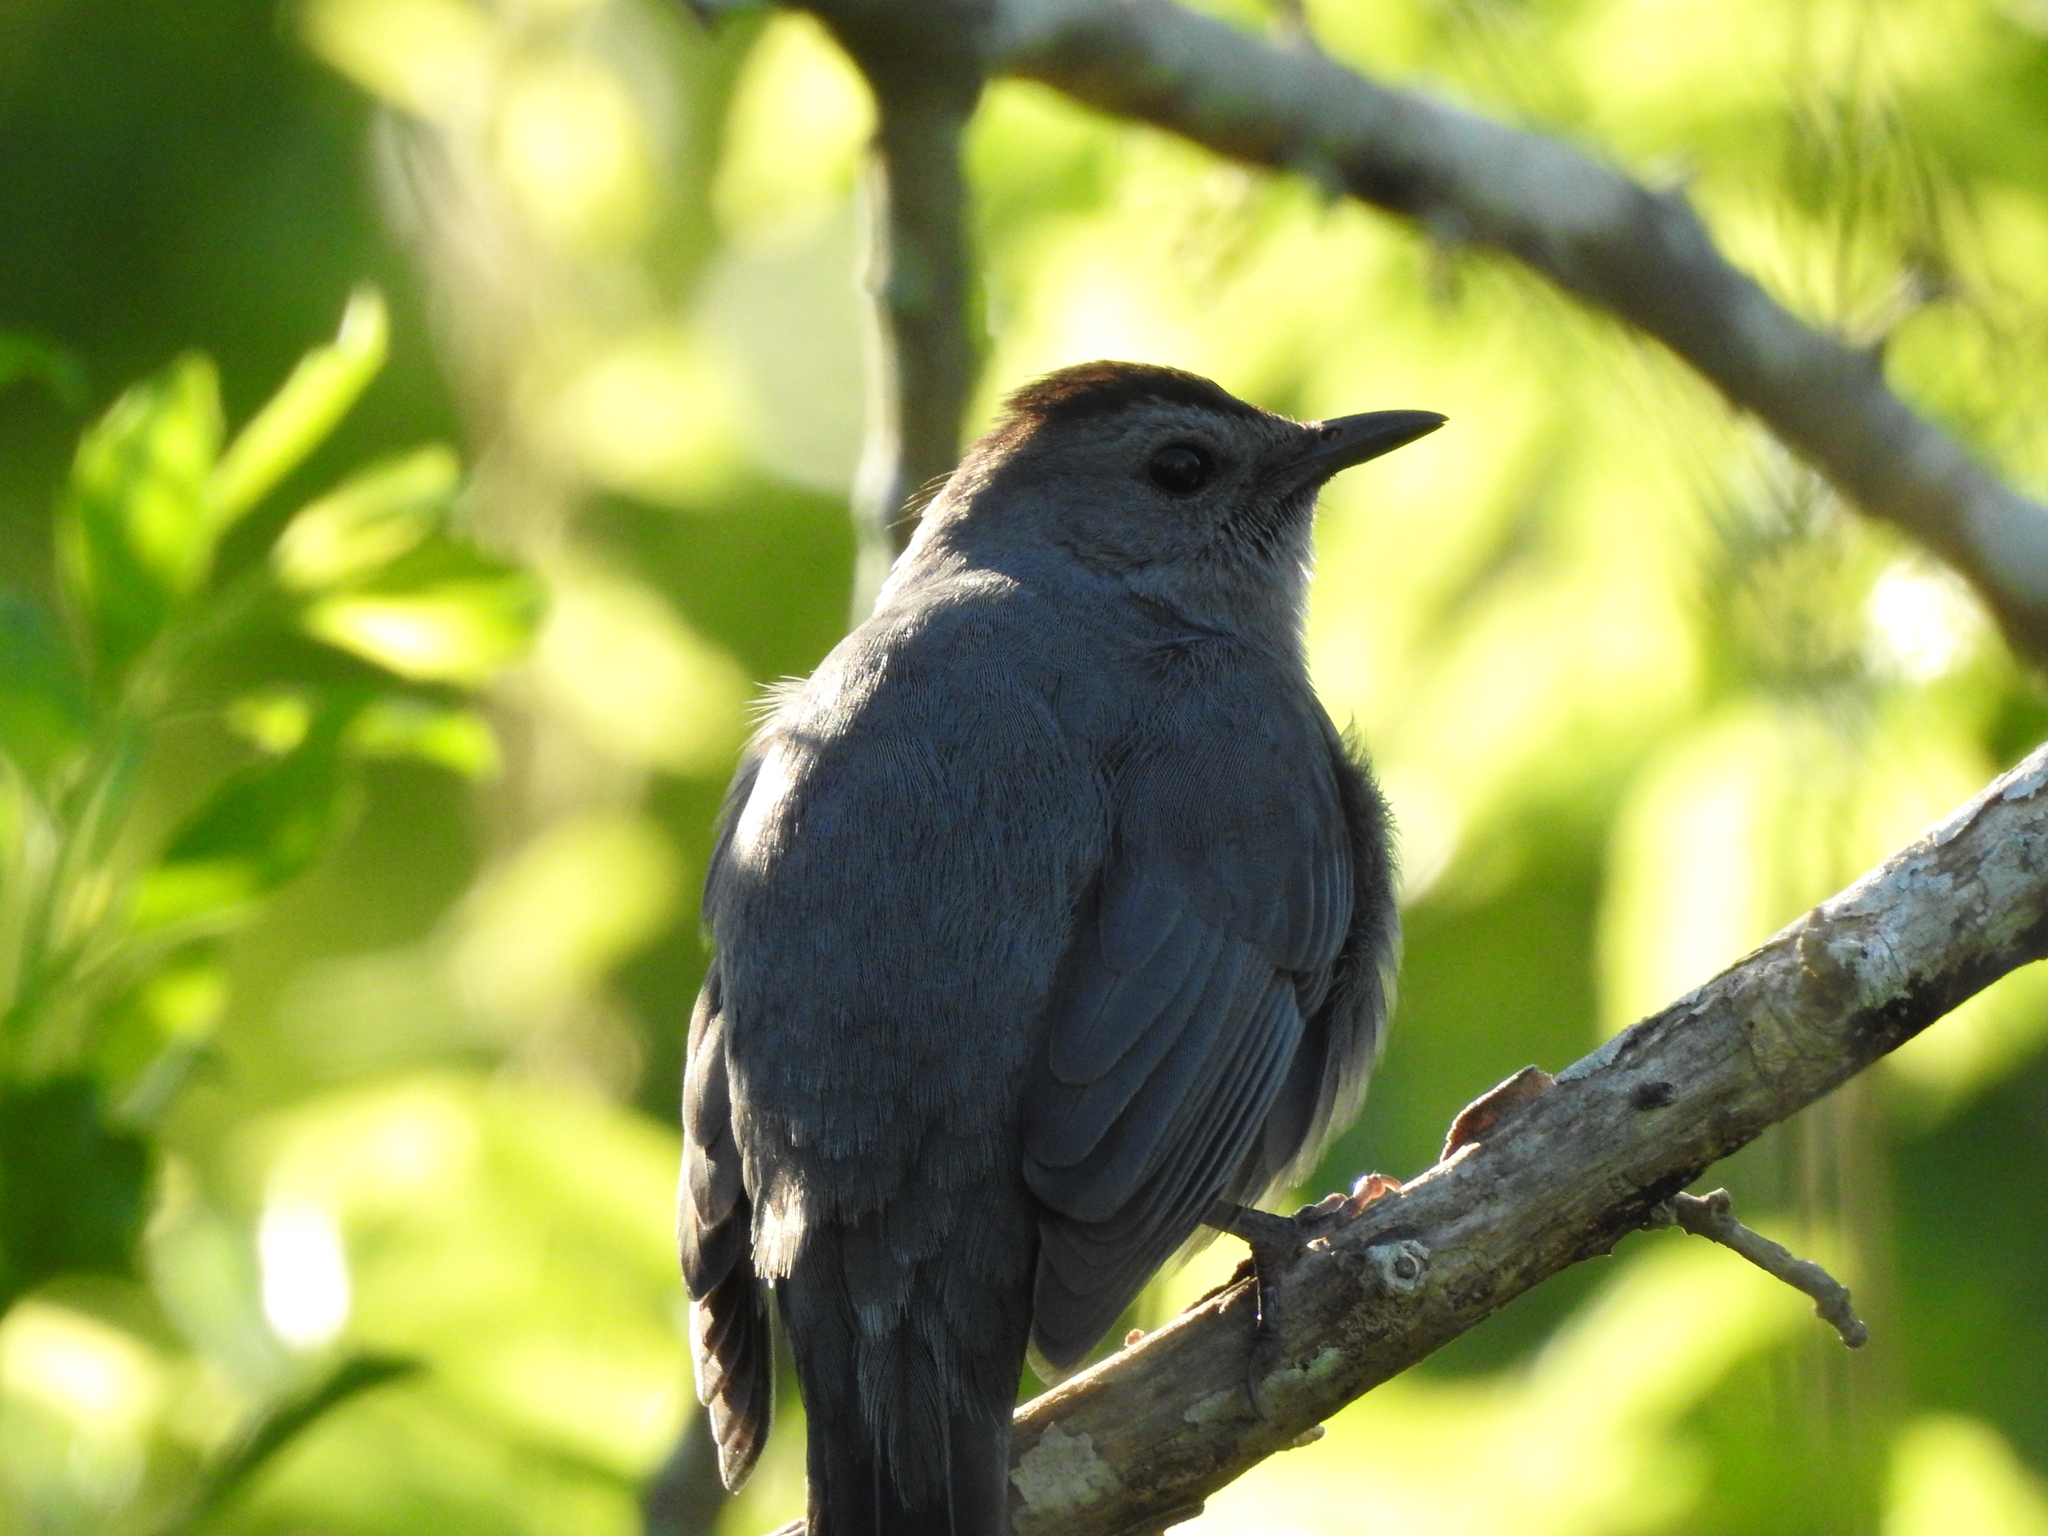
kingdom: Animalia
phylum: Chordata
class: Aves
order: Passeriformes
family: Mimidae
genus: Dumetella
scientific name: Dumetella carolinensis
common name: Gray catbird
